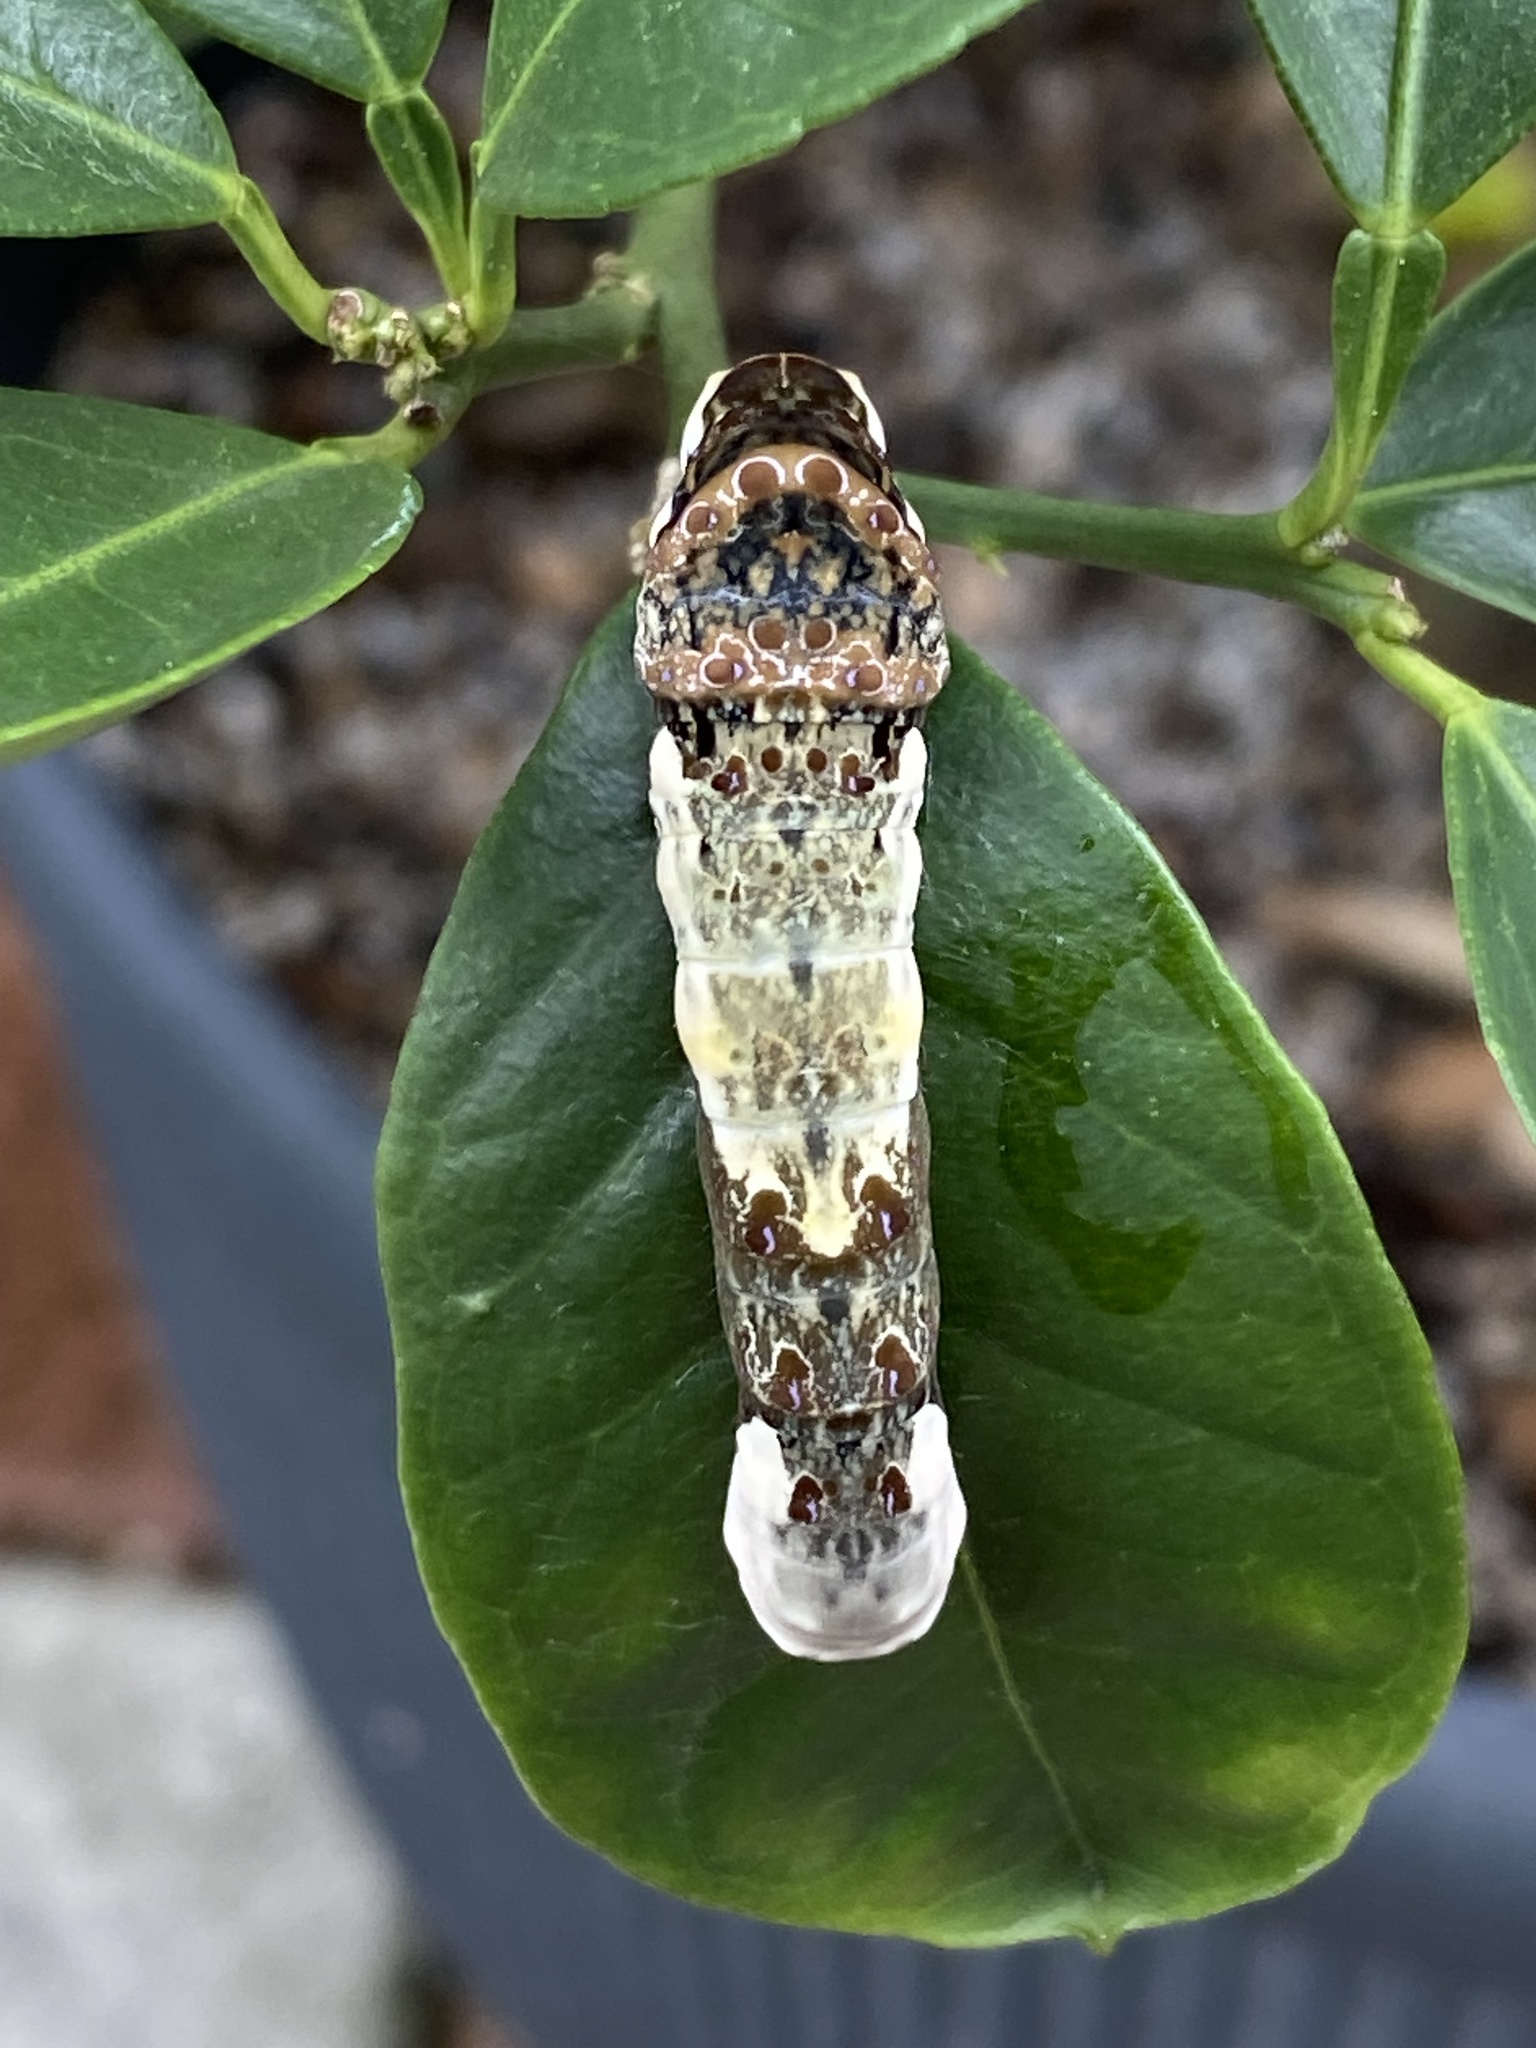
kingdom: Animalia
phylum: Arthropoda
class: Insecta
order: Lepidoptera
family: Papilionidae
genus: Papilio
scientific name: Papilio cresphontes
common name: Giant swallowtail
